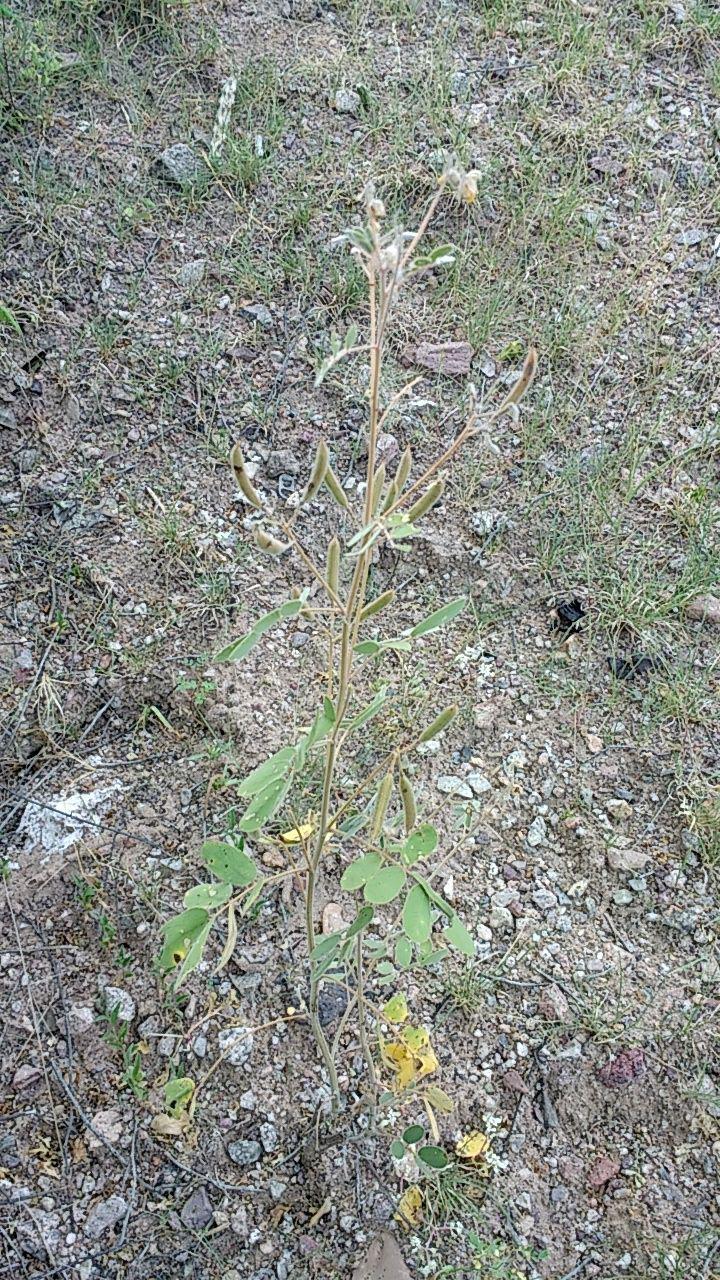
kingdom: Plantae
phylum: Tracheophyta
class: Magnoliopsida
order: Fabales
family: Fabaceae
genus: Senna
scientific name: Senna covesii
